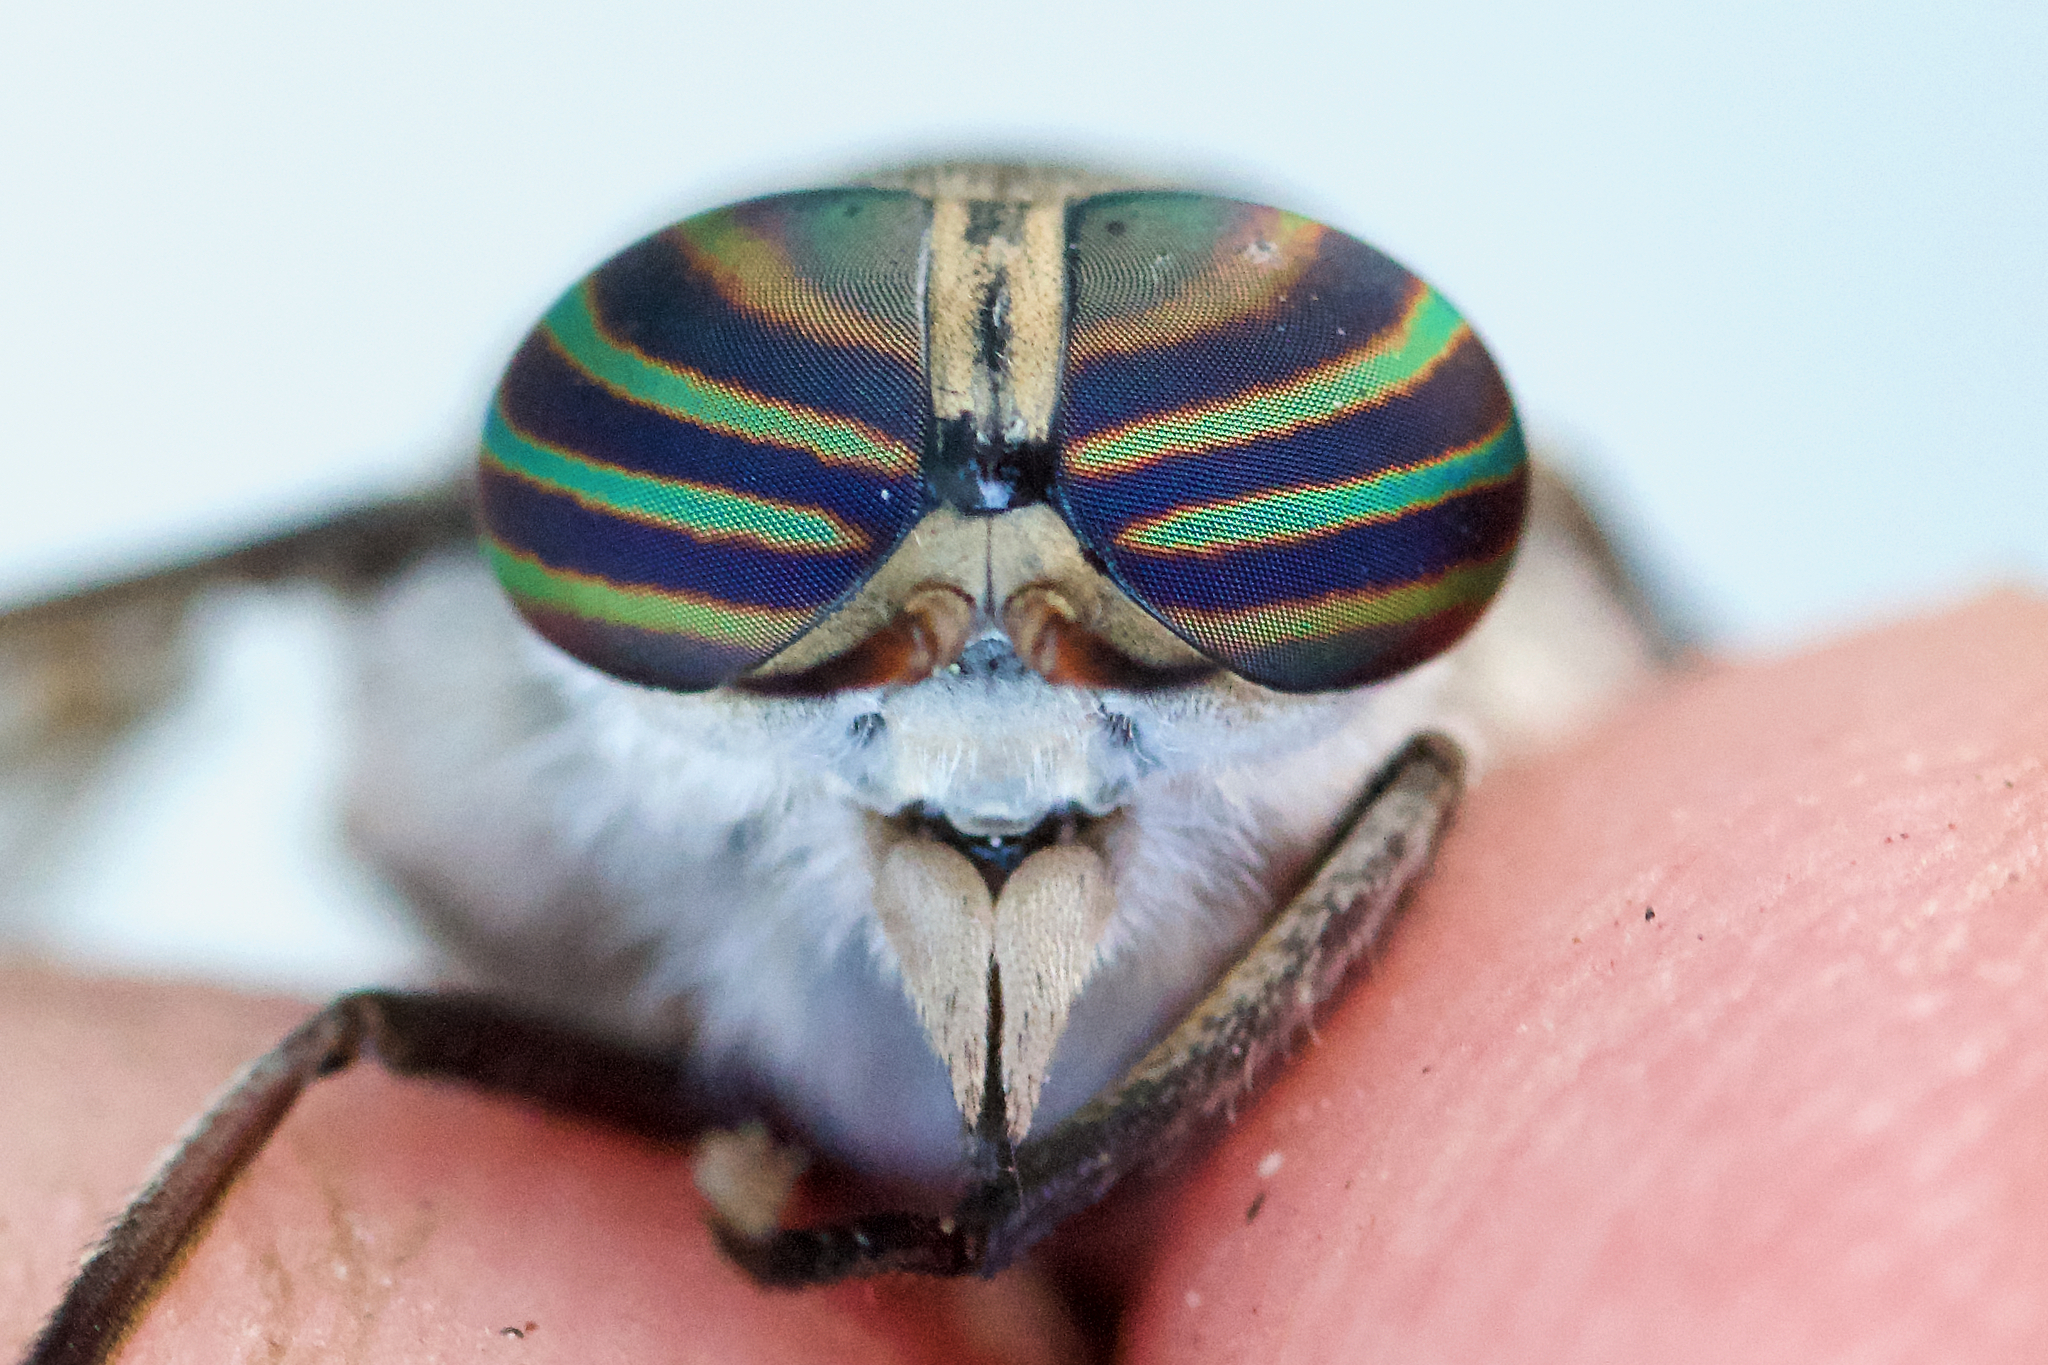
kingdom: Animalia
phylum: Arthropoda
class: Insecta
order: Diptera
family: Tabanidae
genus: Hybomitra
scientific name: Hybomitra frontalis
